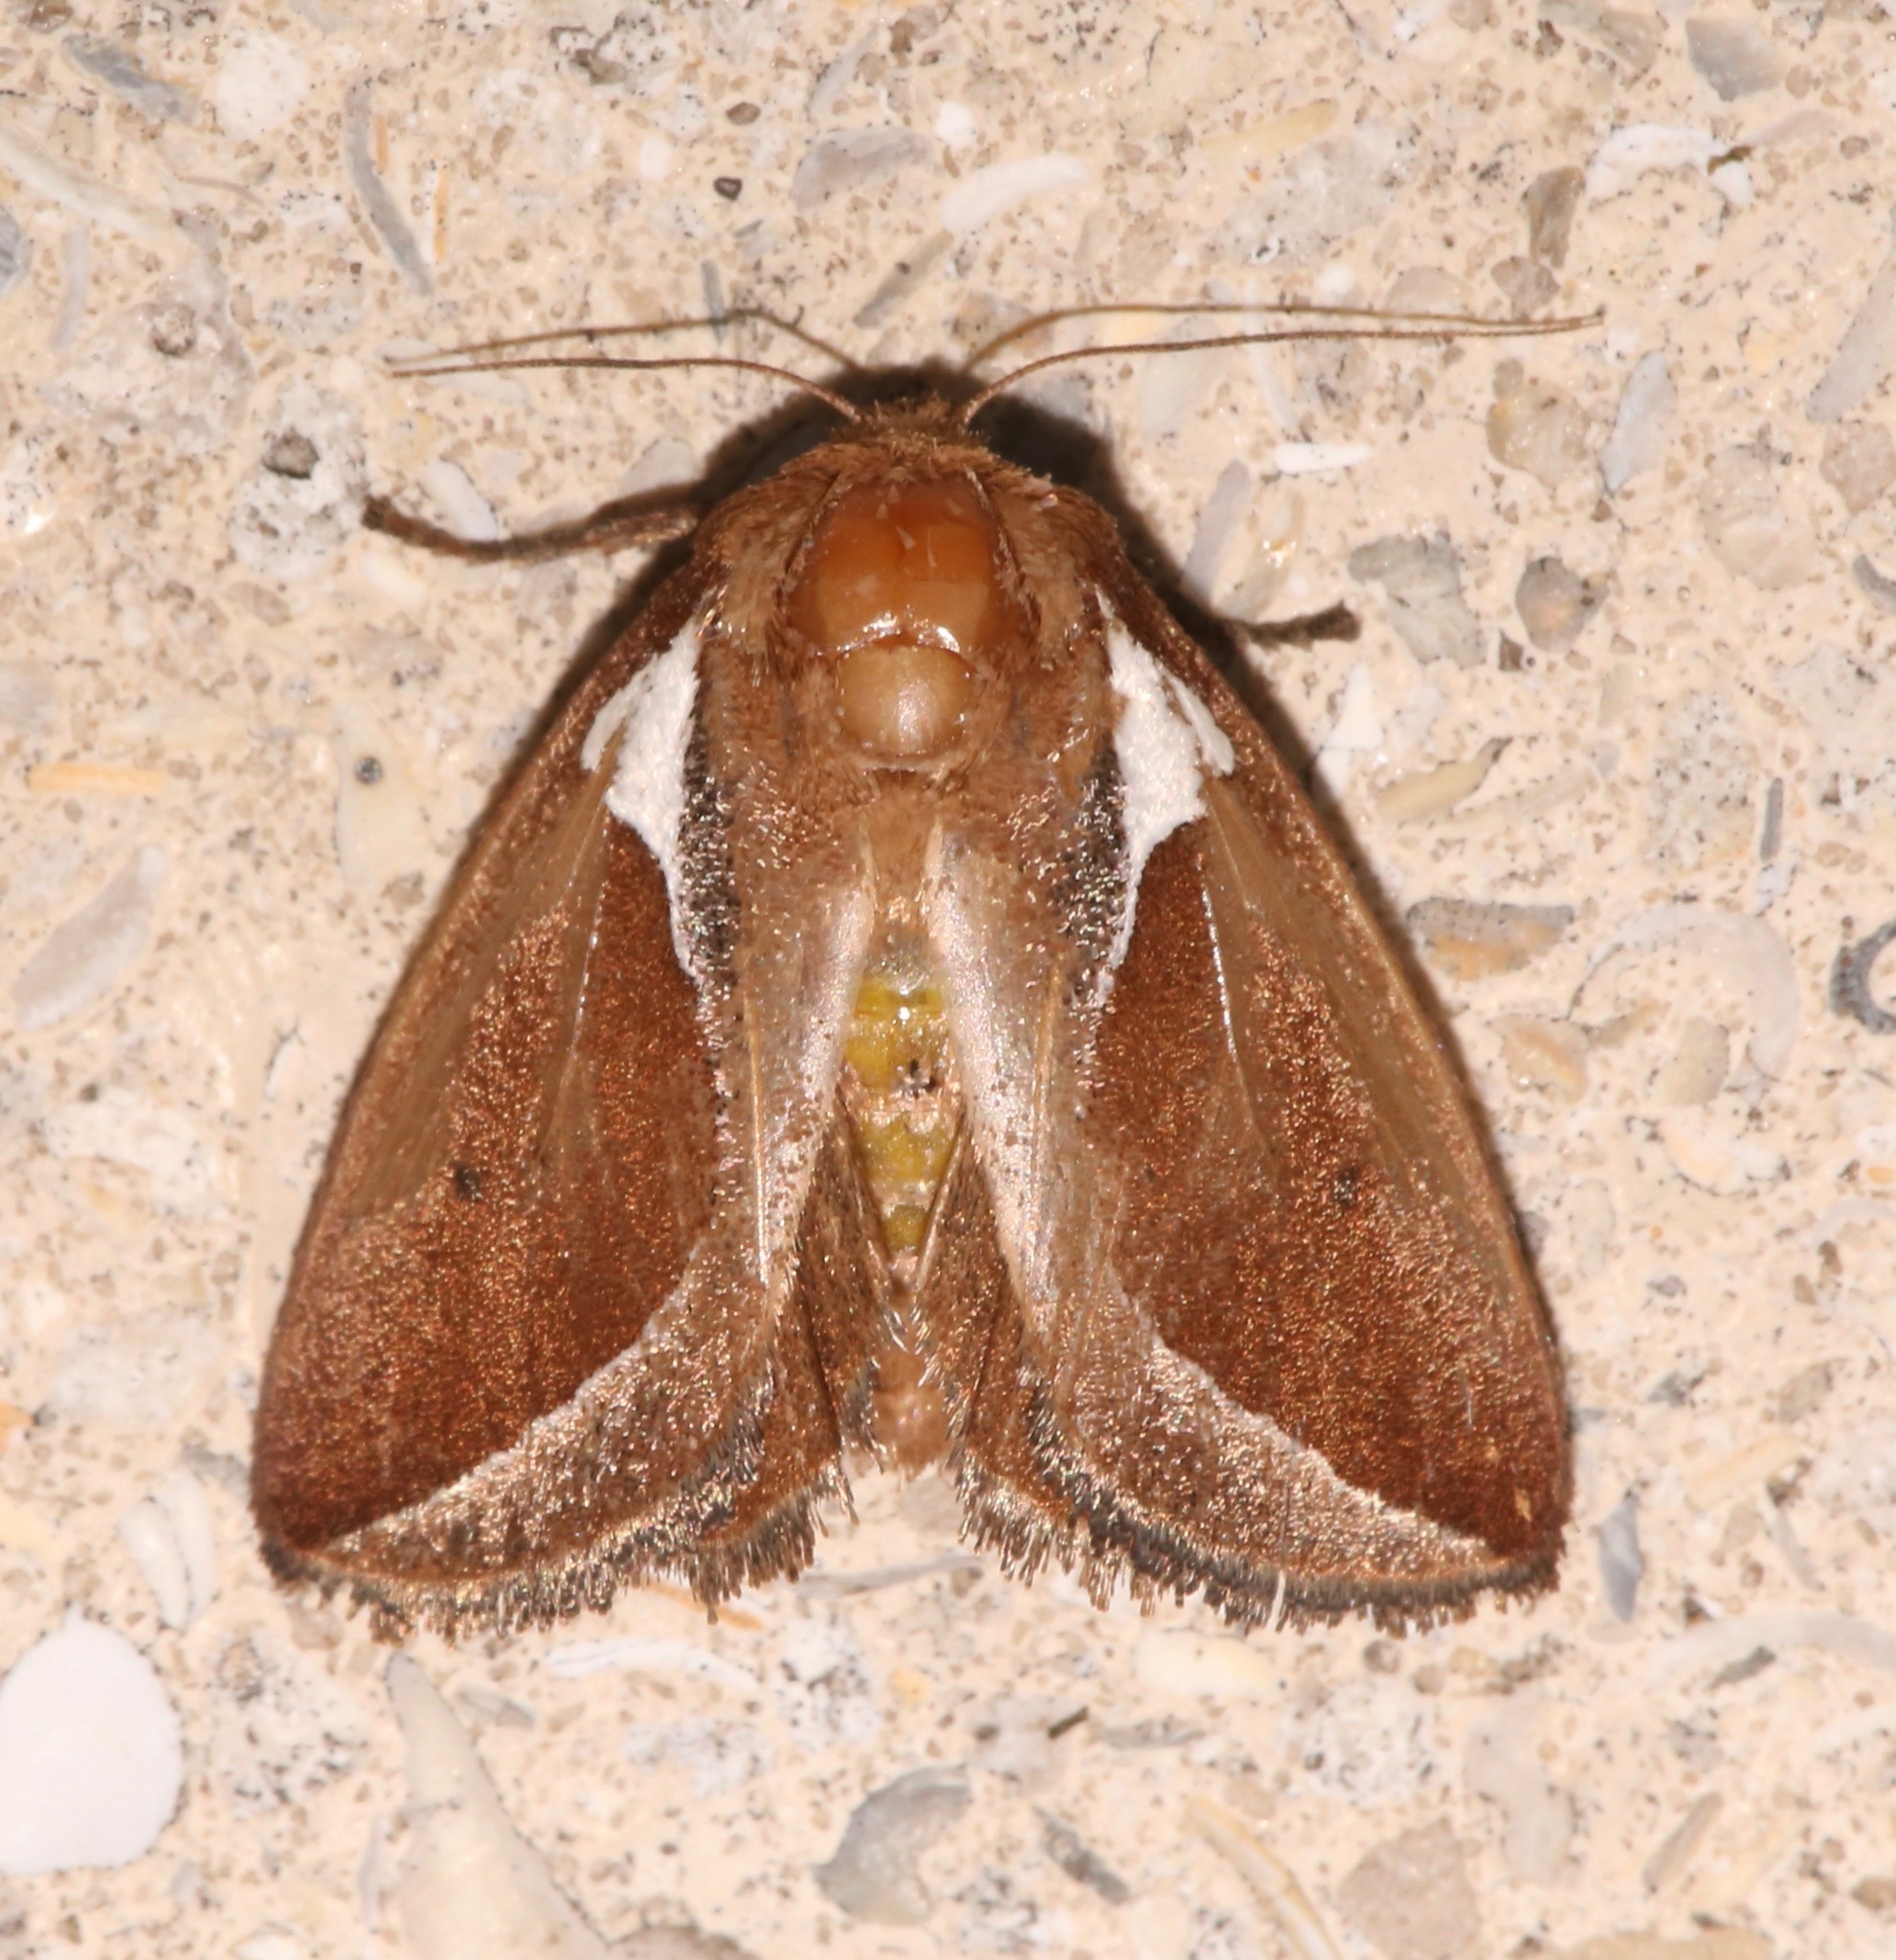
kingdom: Animalia
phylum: Arthropoda
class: Insecta
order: Lepidoptera
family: Limacodidae
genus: Prolimacodes
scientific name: Prolimacodes badia
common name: Skiff moth
